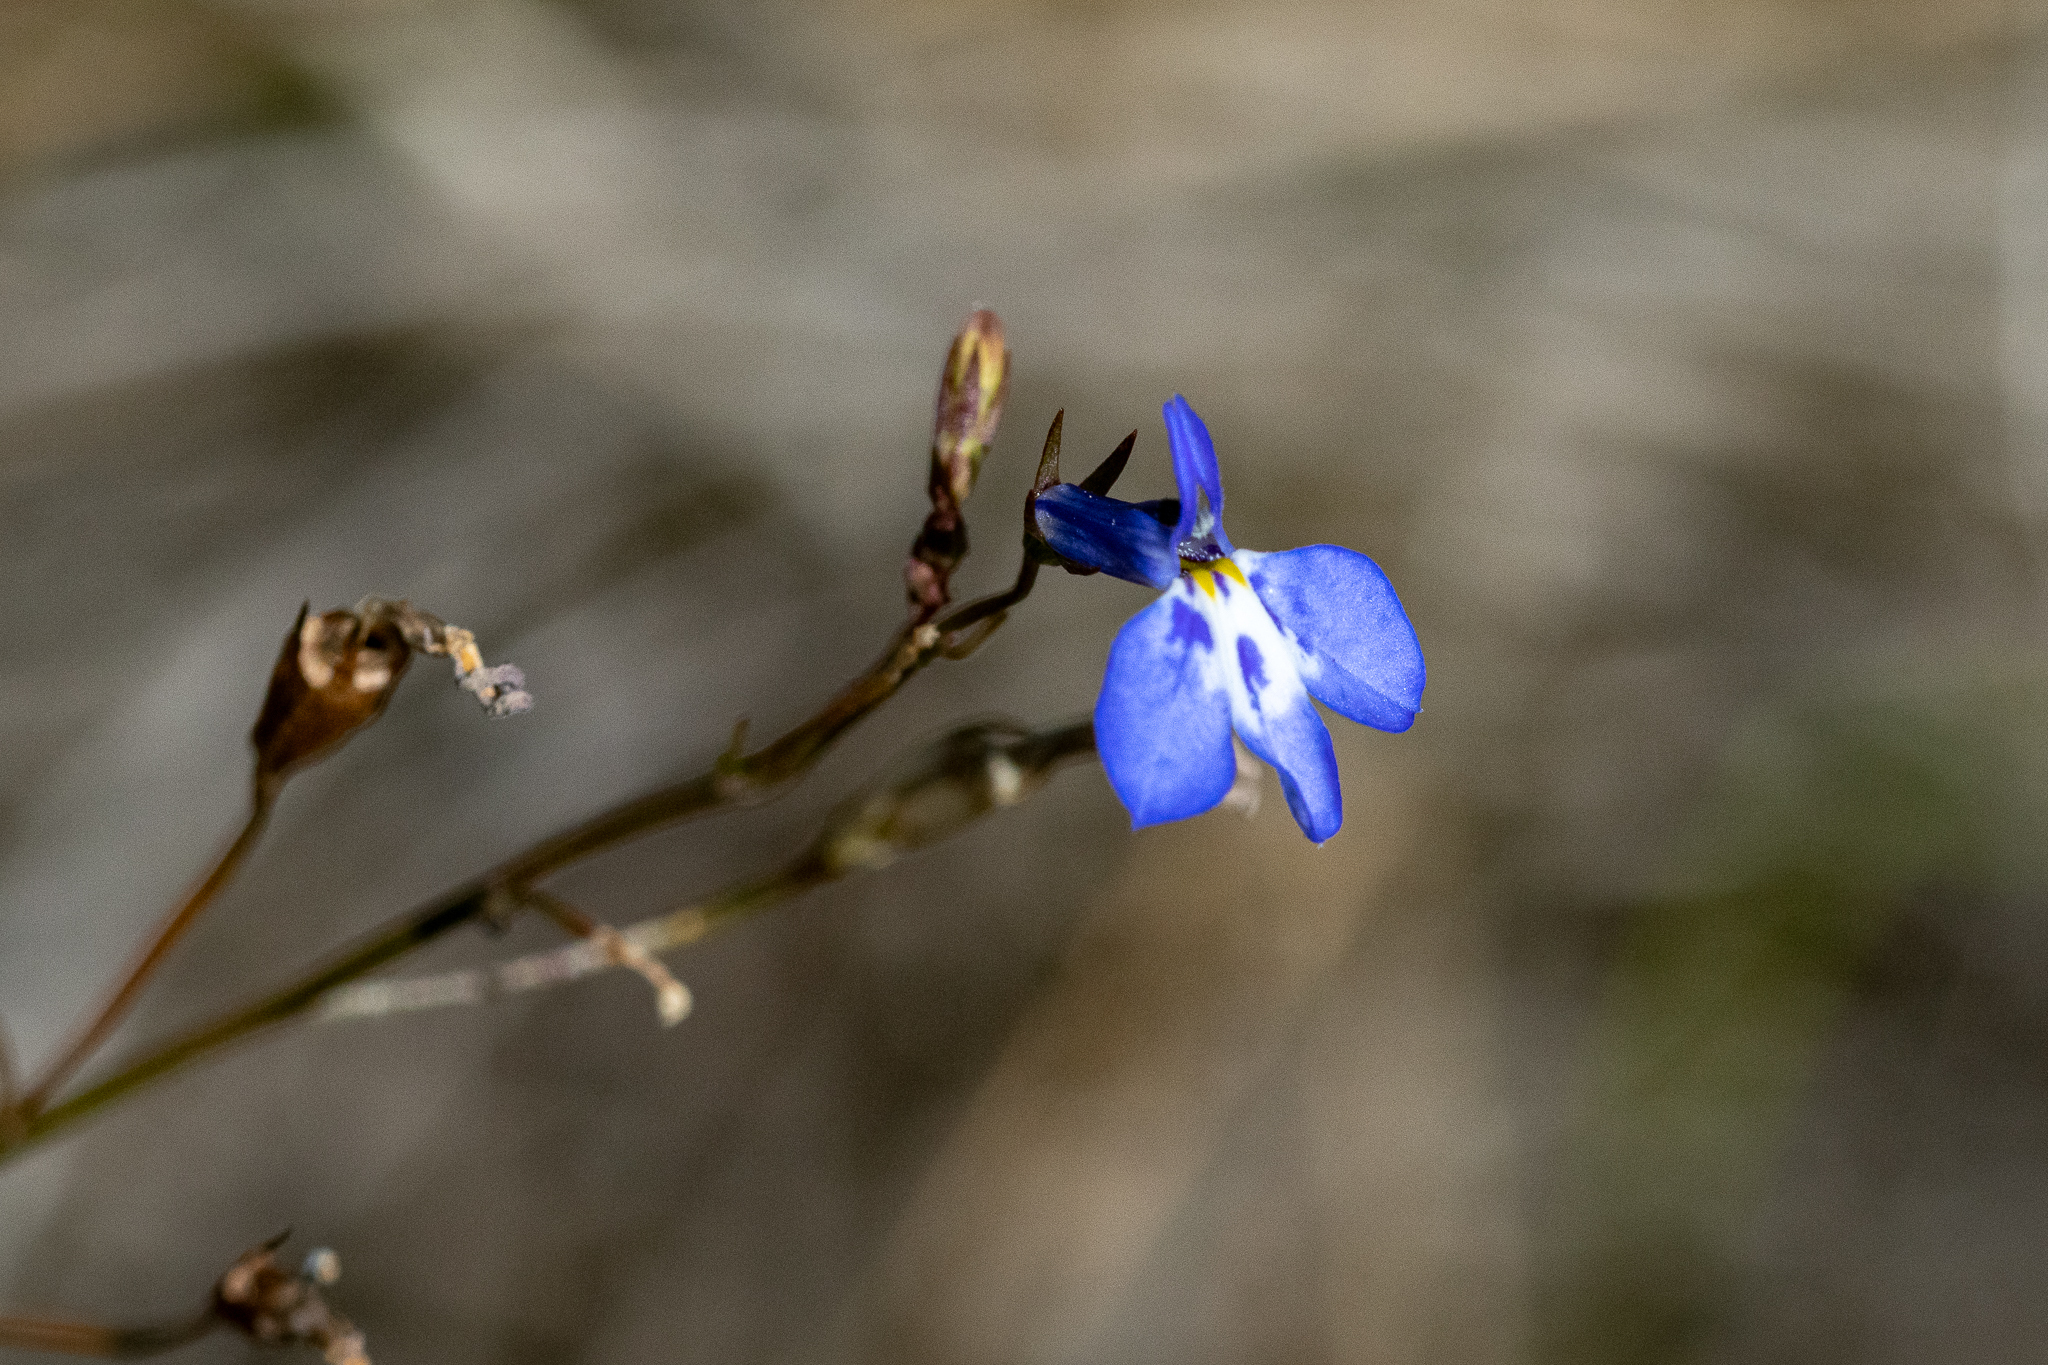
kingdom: Plantae
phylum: Tracheophyta
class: Magnoliopsida
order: Asterales
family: Campanulaceae
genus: Lobelia
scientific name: Lobelia erinus
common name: Edging lobelia
